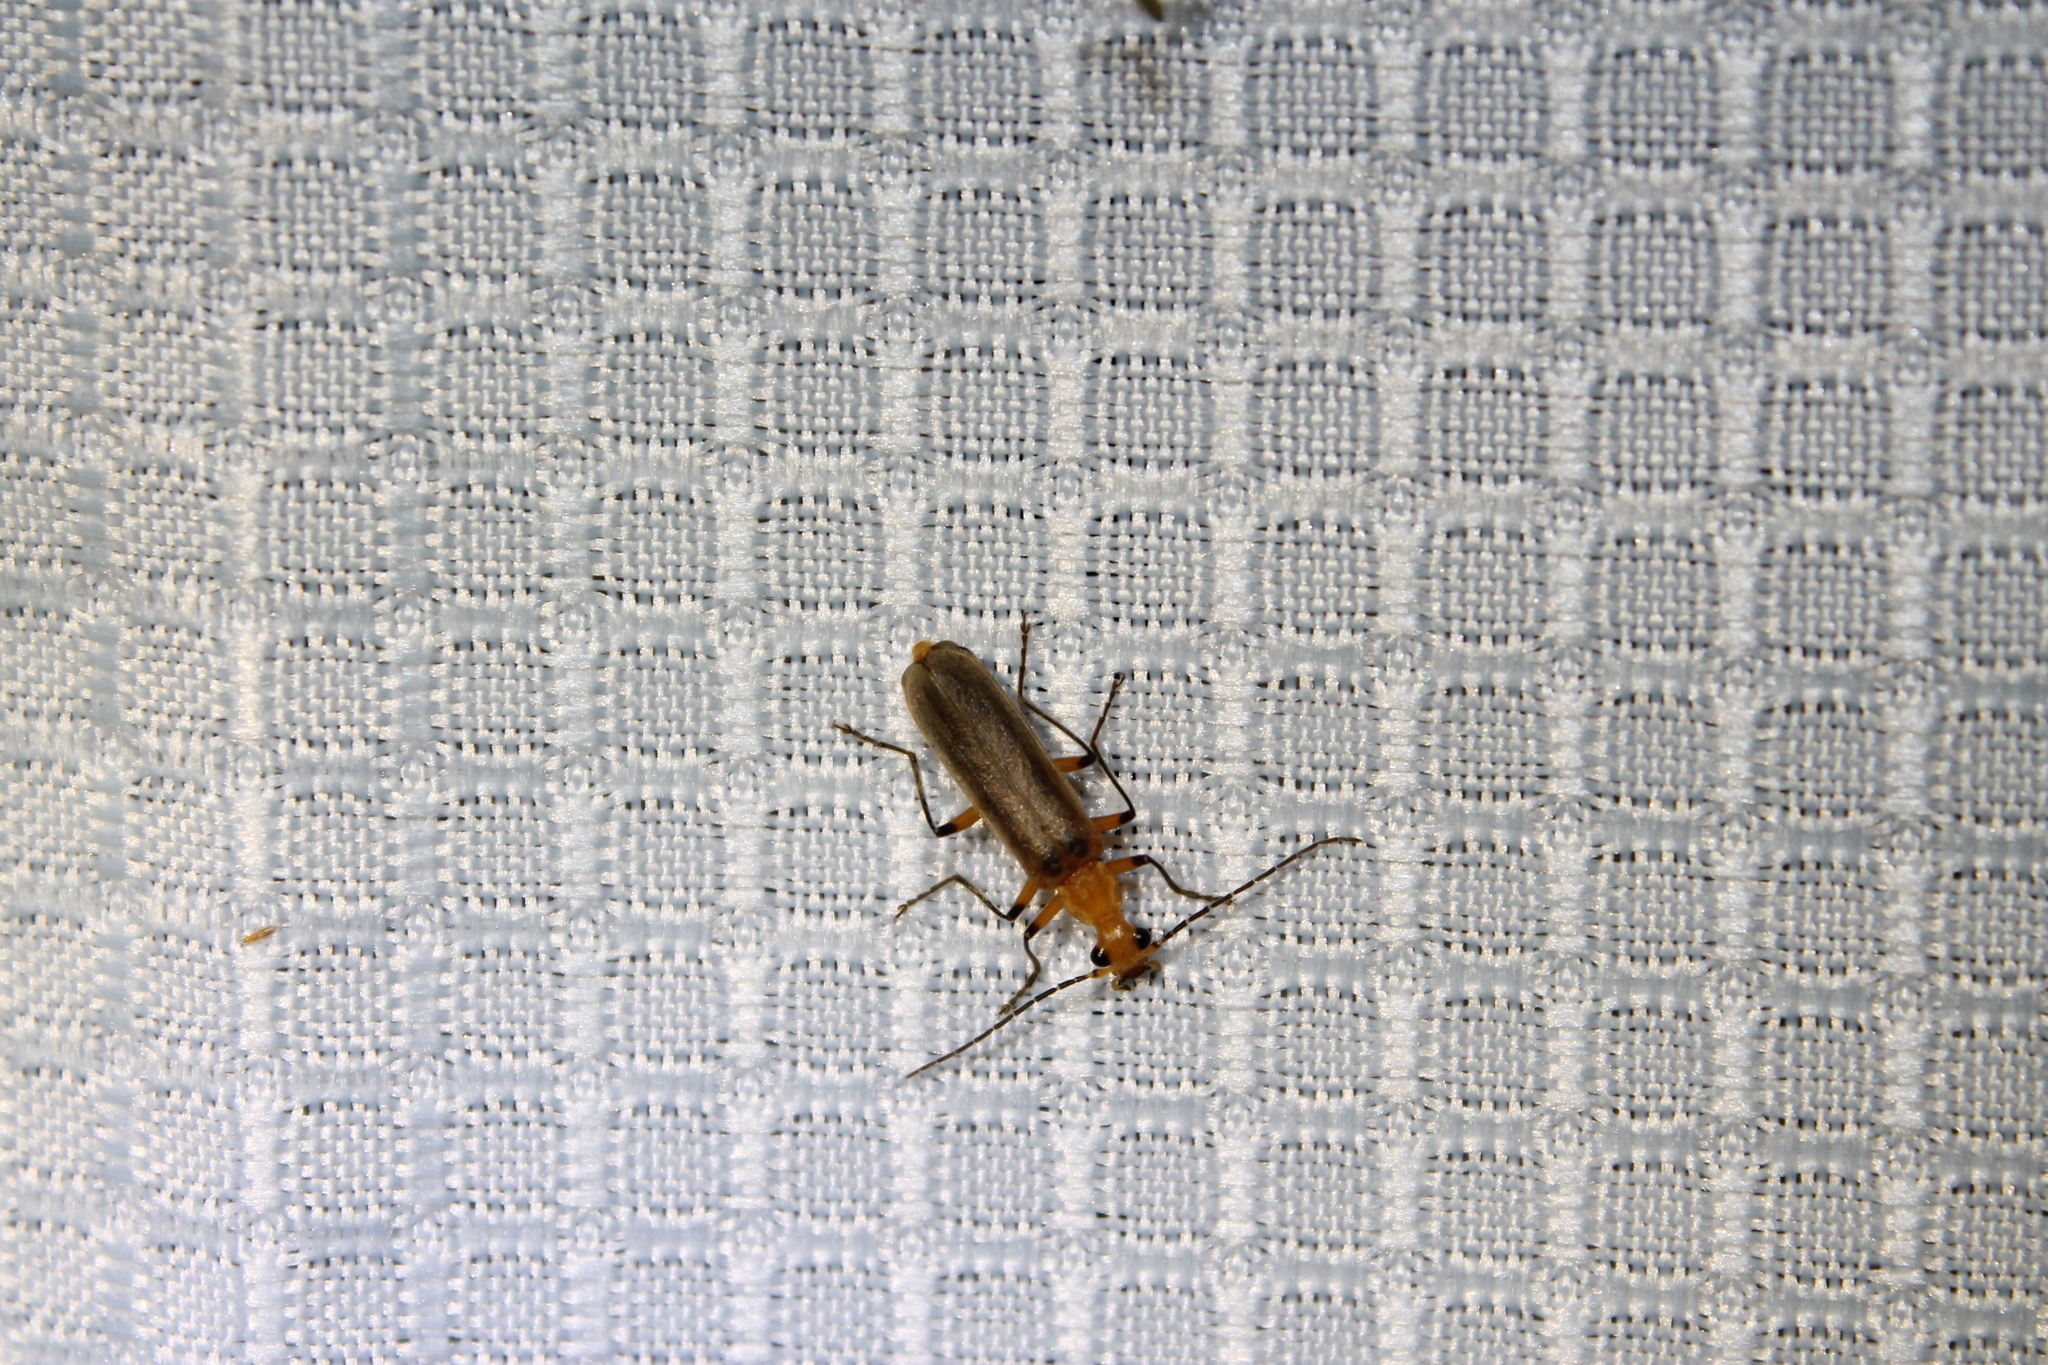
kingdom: Animalia
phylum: Arthropoda
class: Insecta
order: Coleoptera
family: Cantharidae
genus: Podabrus
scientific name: Podabrus protensus
